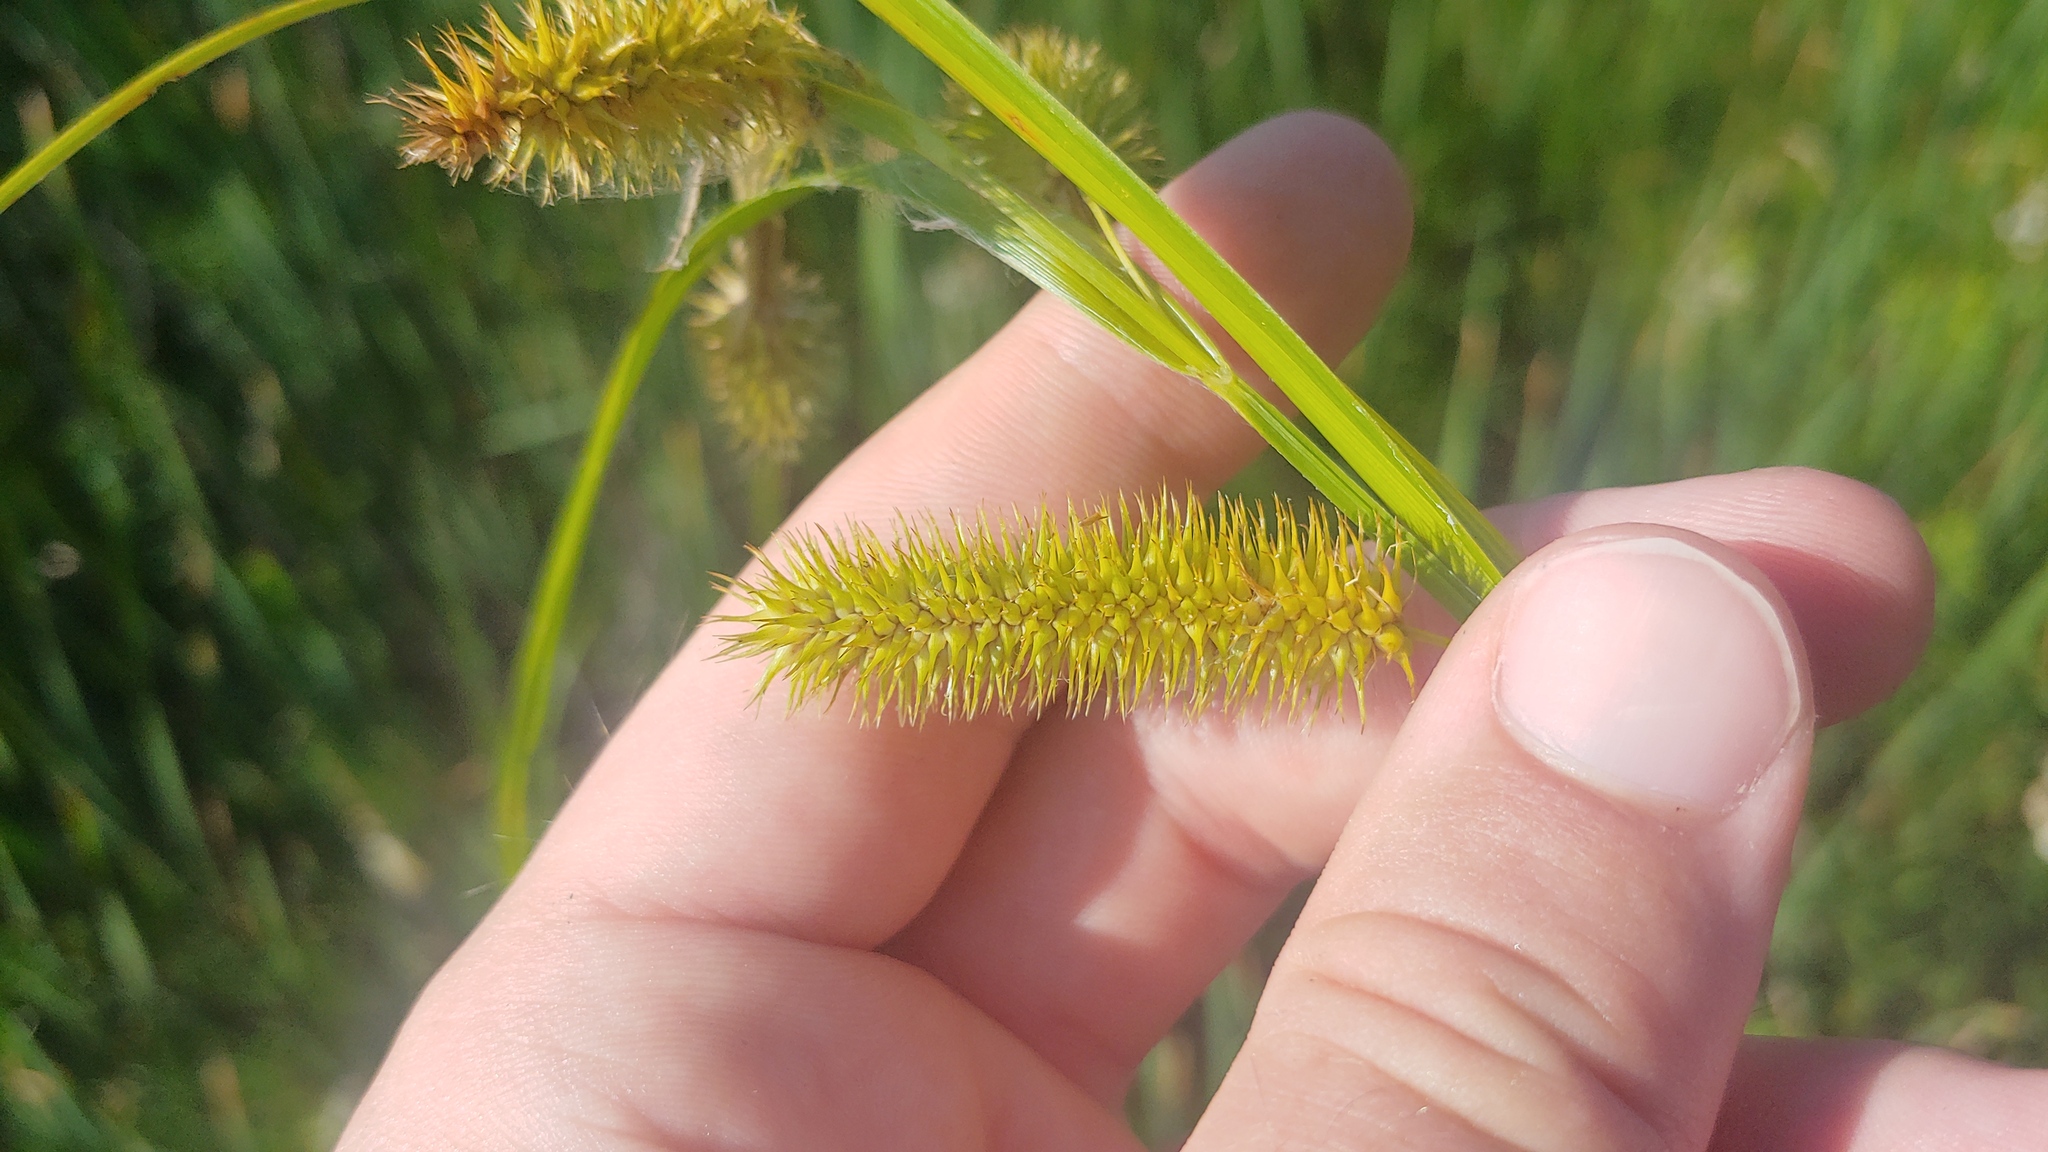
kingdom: Plantae
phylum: Tracheophyta
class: Liliopsida
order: Poales
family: Cyperaceae
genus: Carex
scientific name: Carex comosa
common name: Bristly sedge
